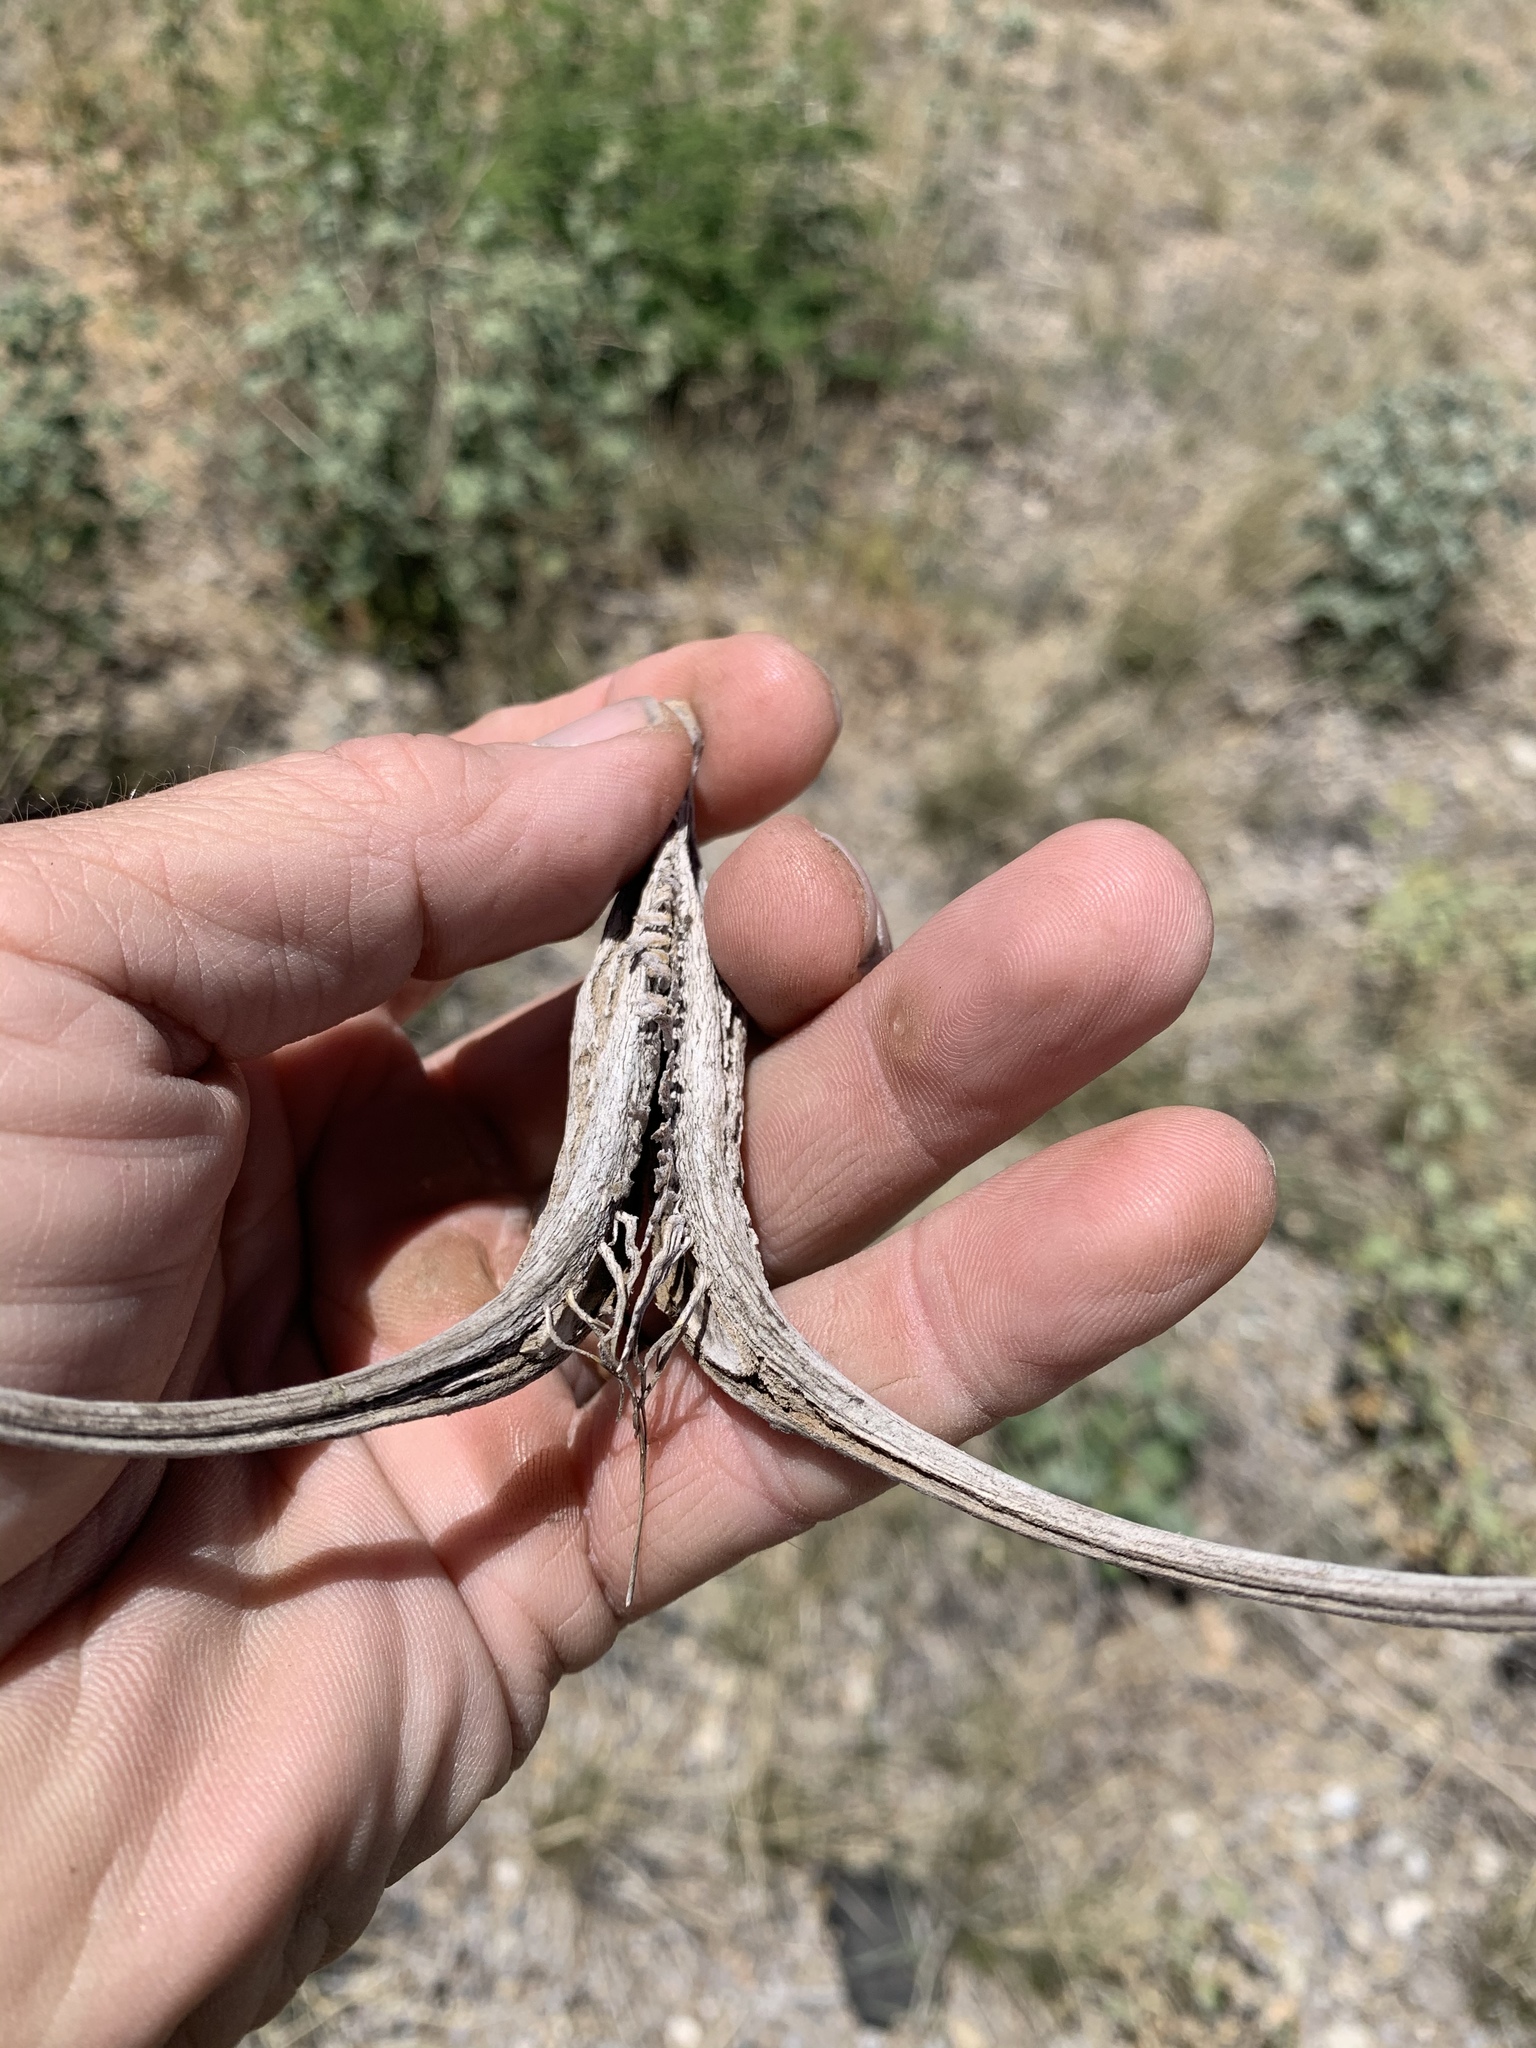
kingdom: Plantae
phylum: Tracheophyta
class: Magnoliopsida
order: Lamiales
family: Martyniaceae
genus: Proboscidea
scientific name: Proboscidea althaeifolia
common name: Desert unicorn-plant
